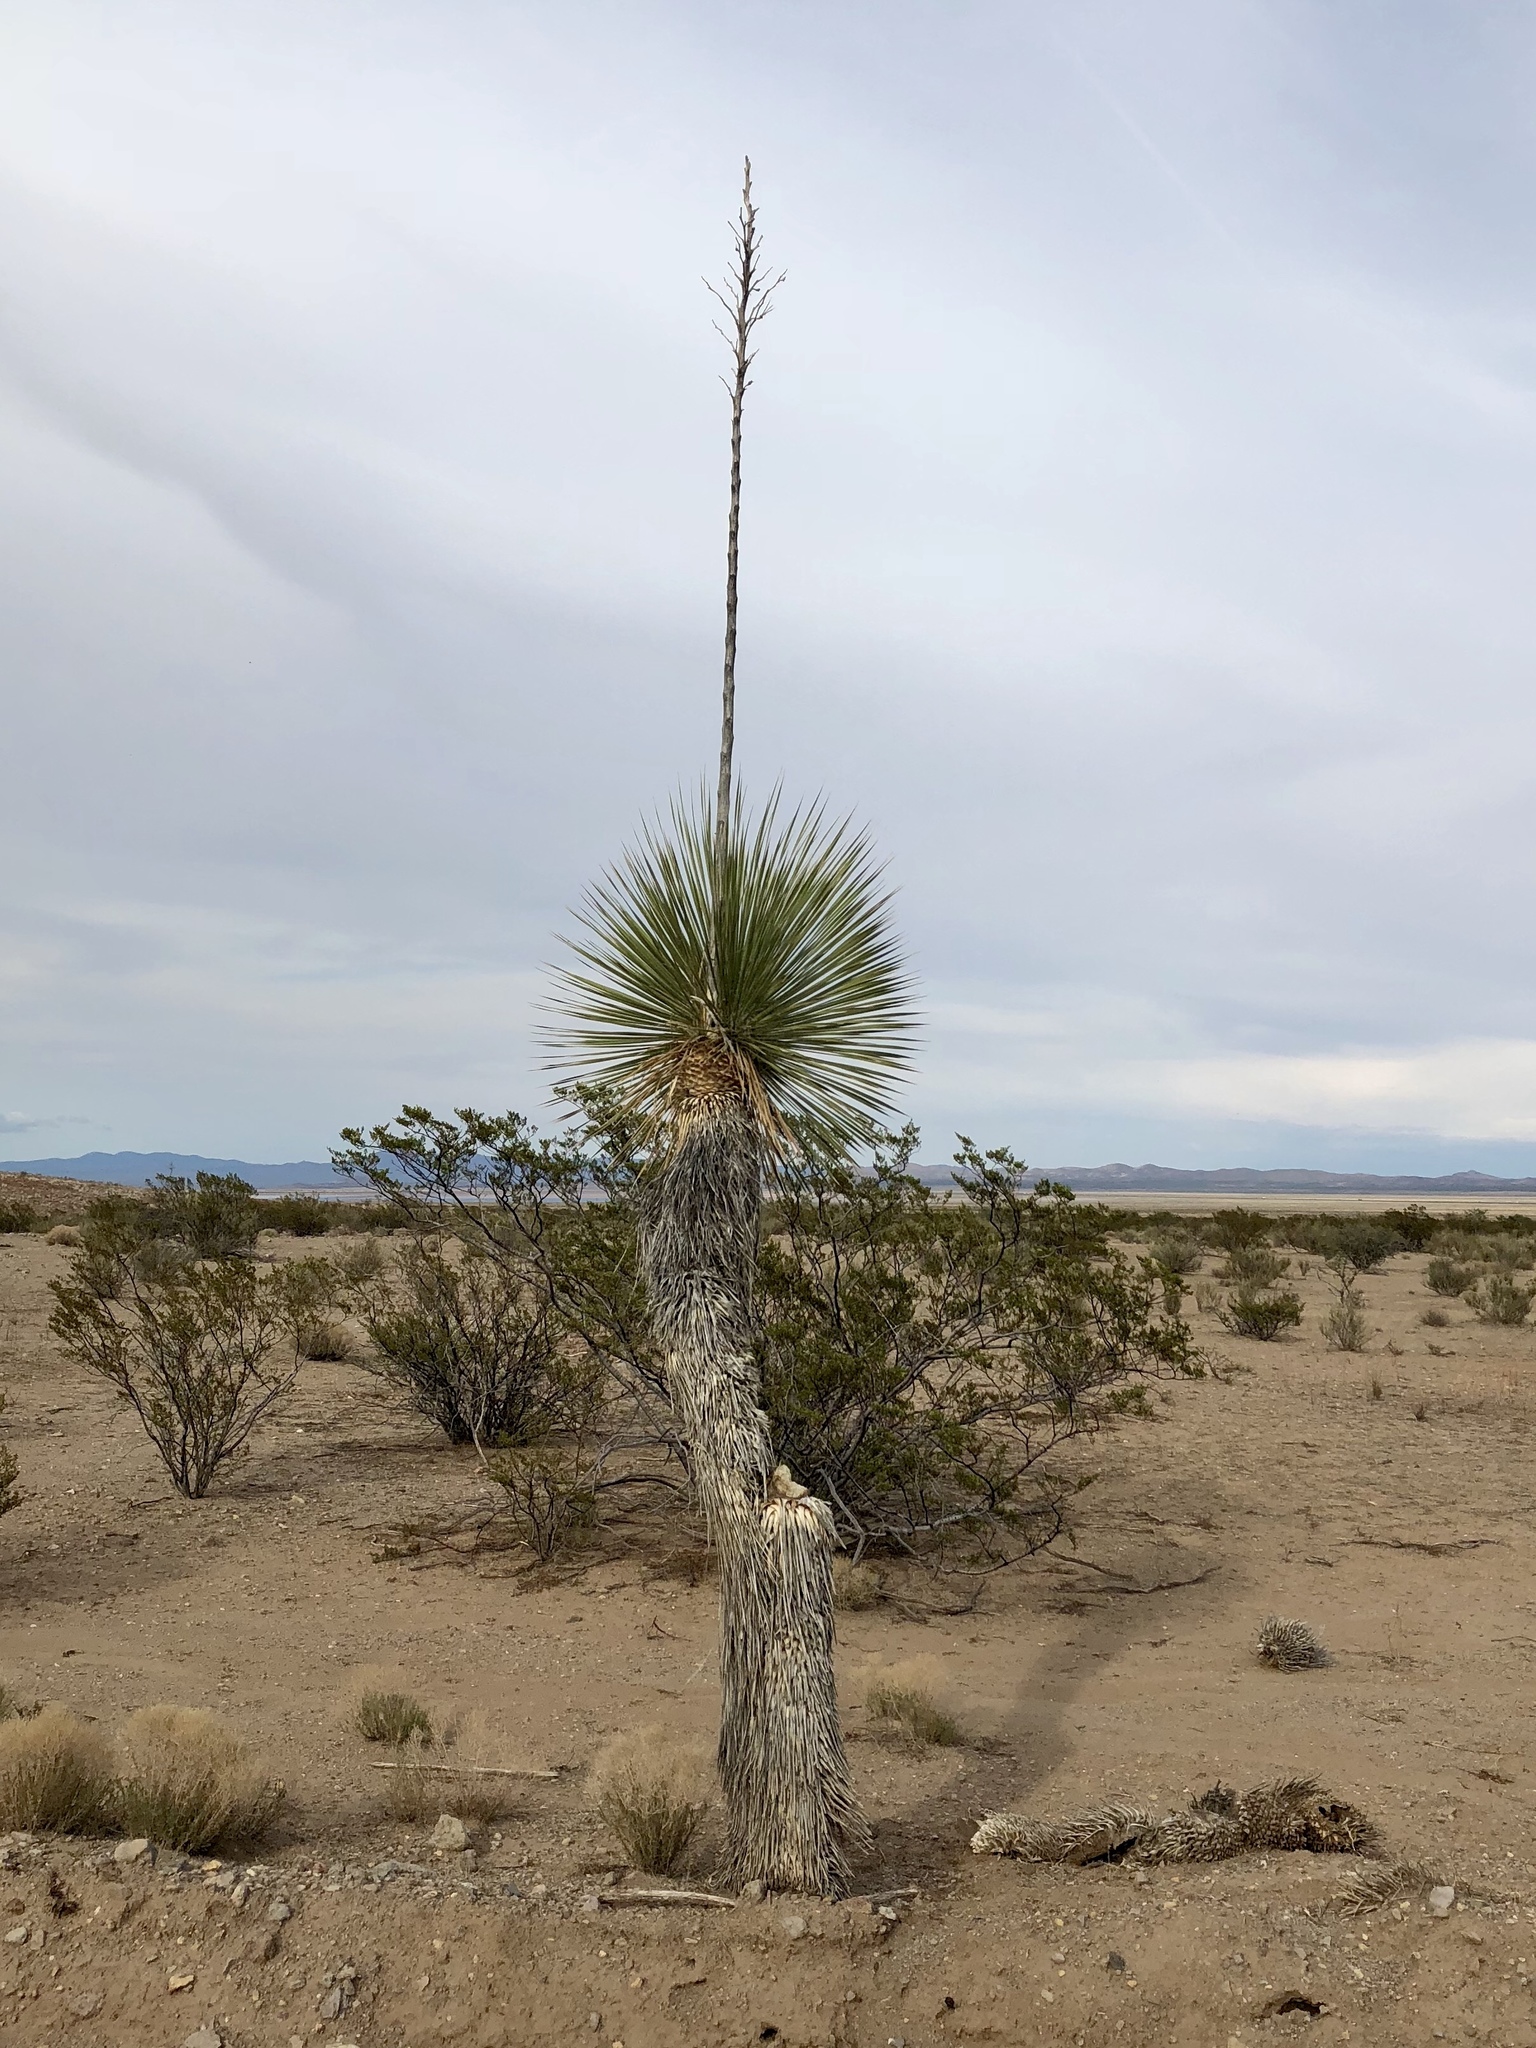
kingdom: Plantae
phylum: Tracheophyta
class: Liliopsida
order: Asparagales
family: Asparagaceae
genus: Yucca
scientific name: Yucca elata
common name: Palmella
